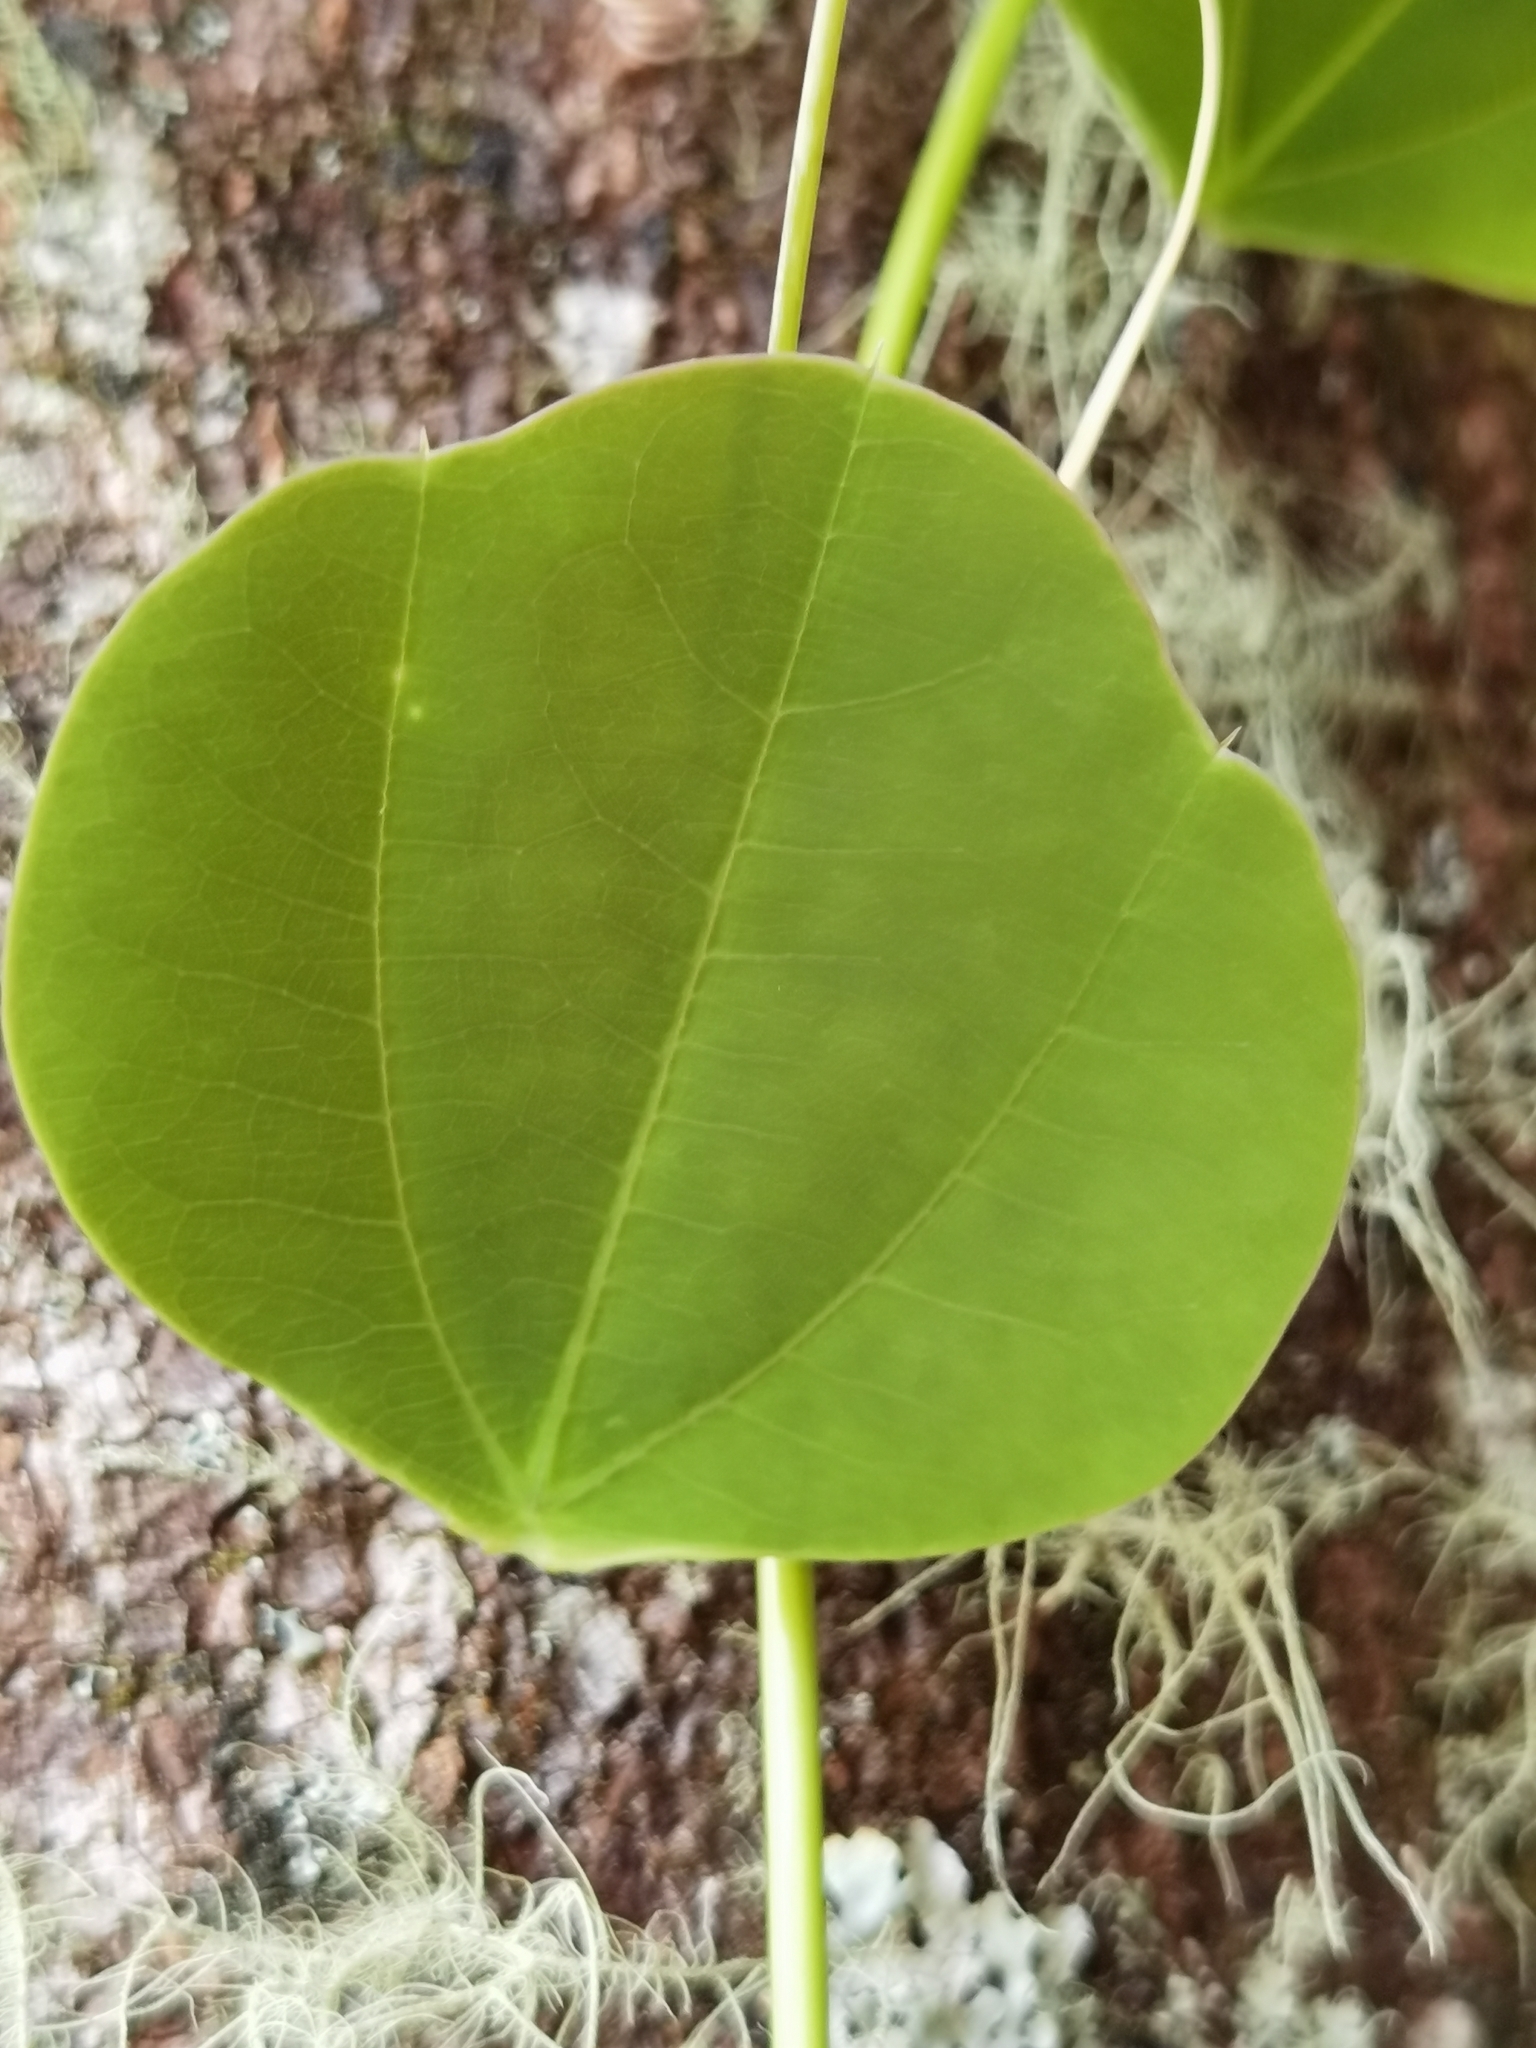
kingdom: Plantae
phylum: Tracheophyta
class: Magnoliopsida
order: Malpighiales
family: Passifloraceae
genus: Passiflora
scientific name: Passiflora membranacea
